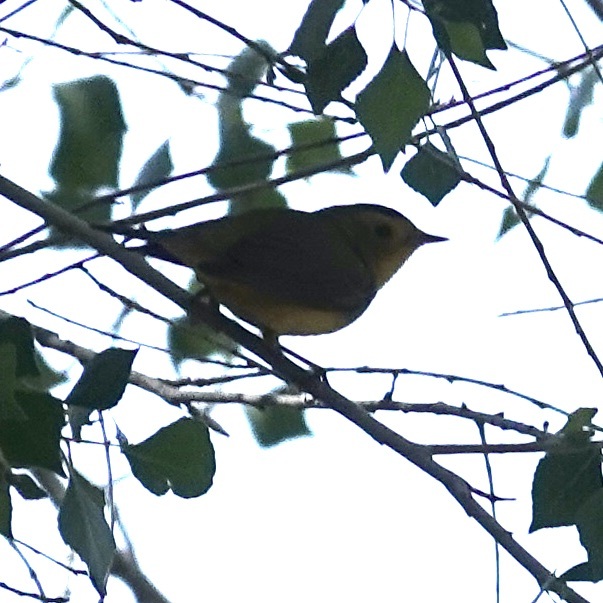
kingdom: Animalia
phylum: Chordata
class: Aves
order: Passeriformes
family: Parulidae
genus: Cardellina
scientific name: Cardellina pusilla
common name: Wilson's warbler
